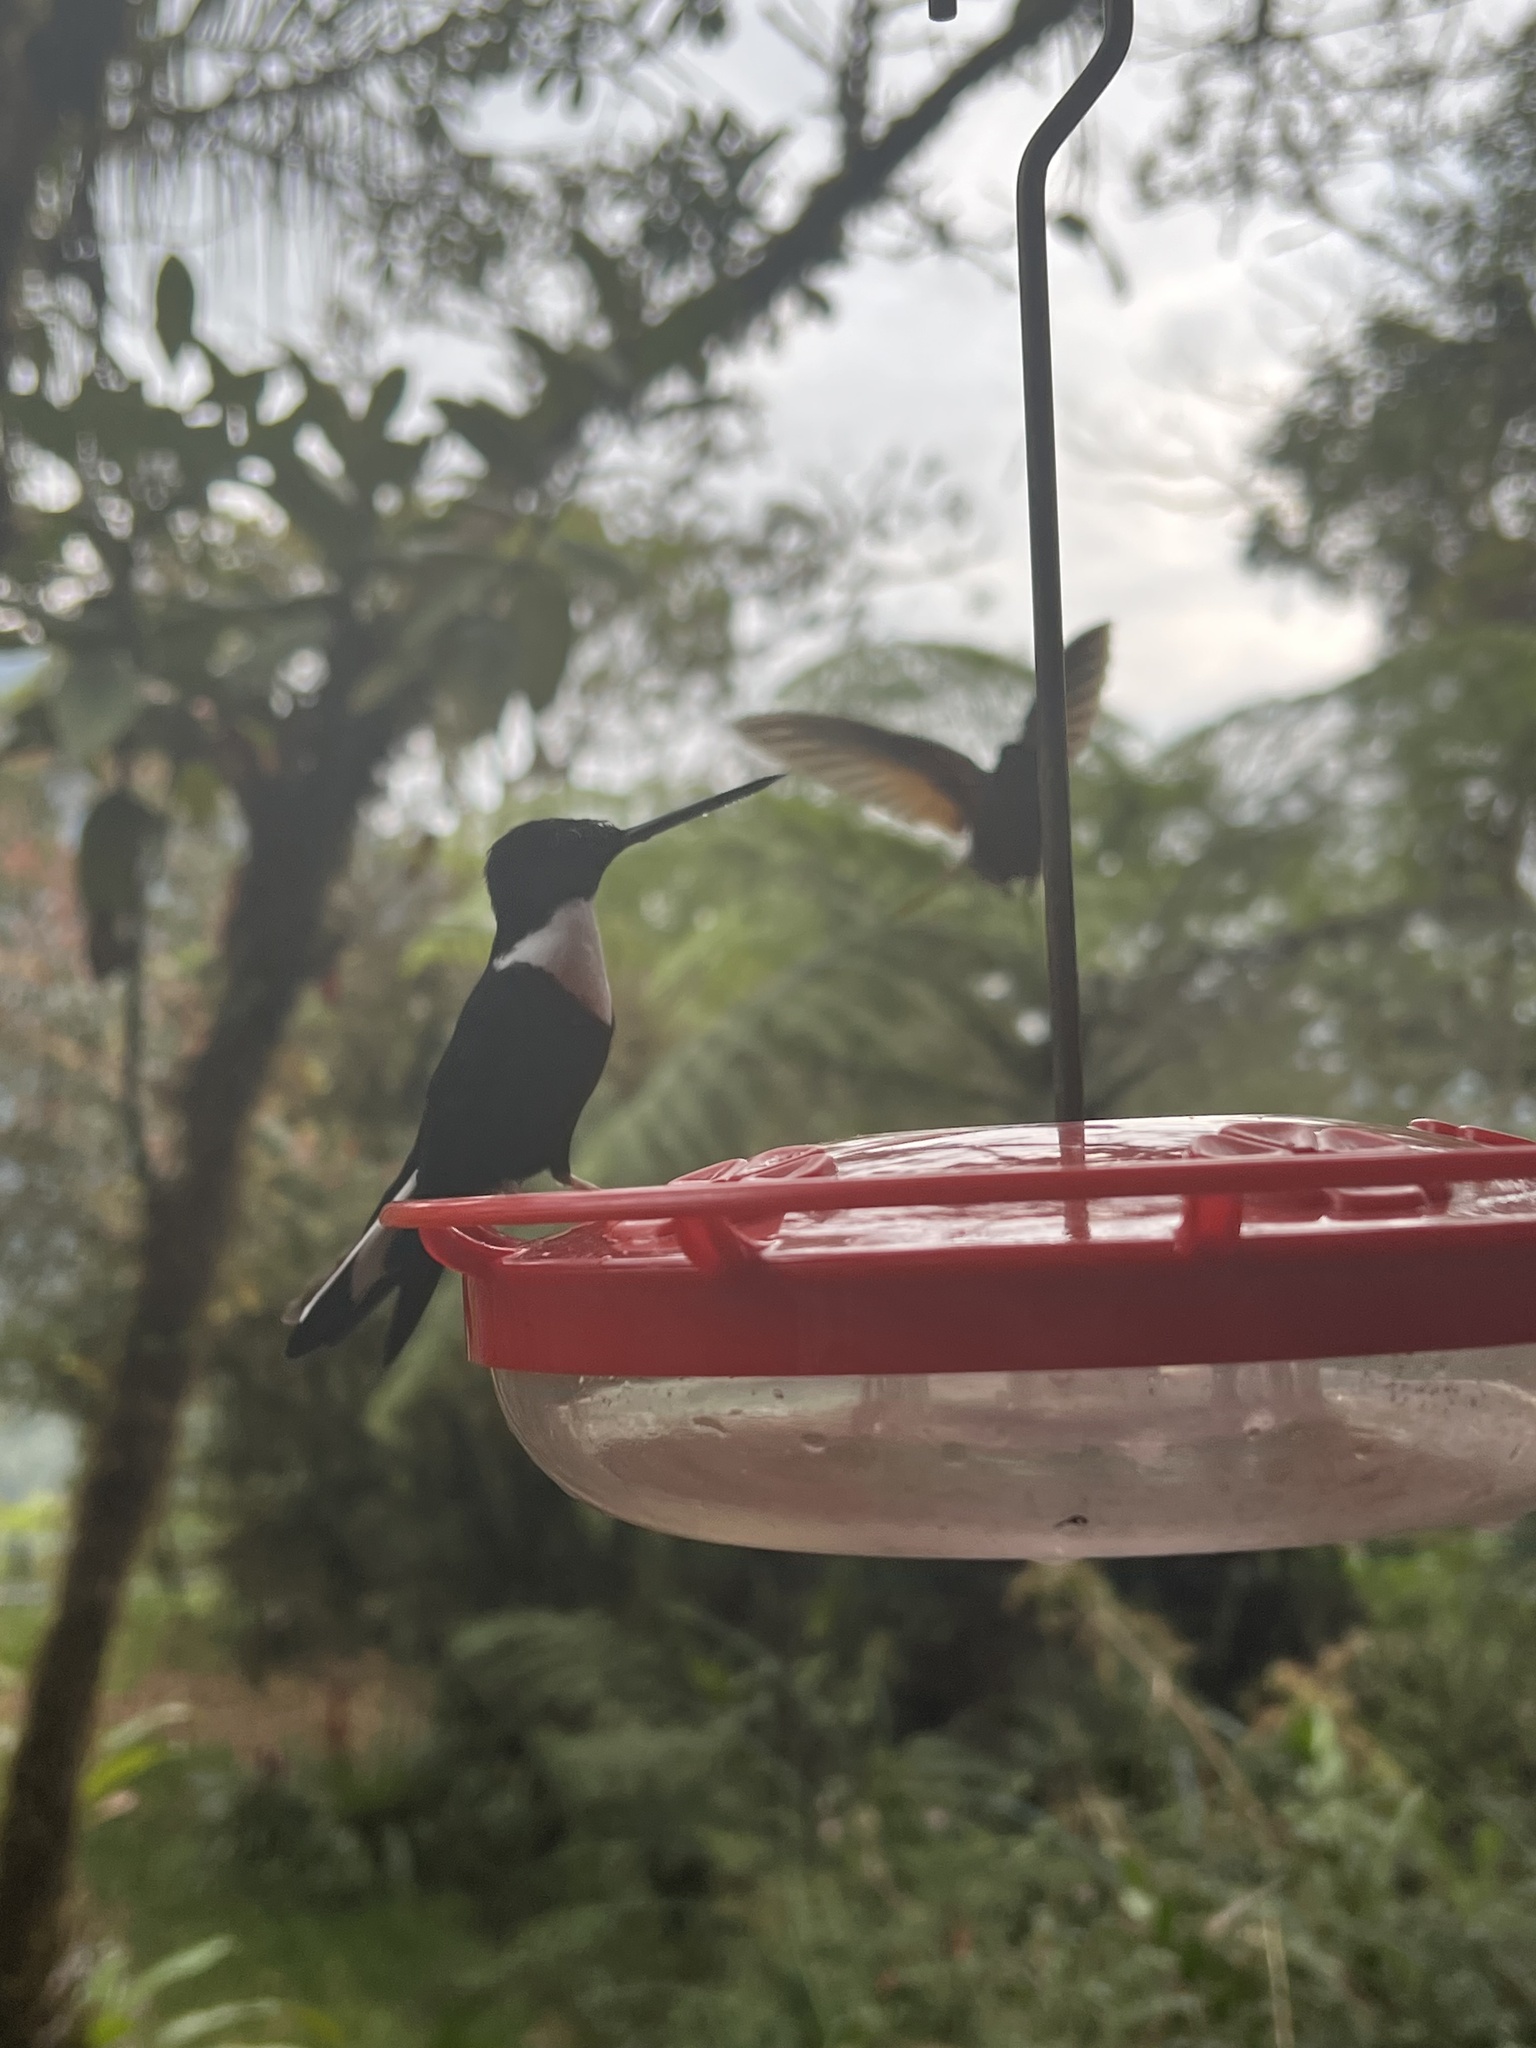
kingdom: Animalia
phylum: Chordata
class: Aves
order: Apodiformes
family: Trochilidae
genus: Coeligena
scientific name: Coeligena torquata
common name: Collared inca
